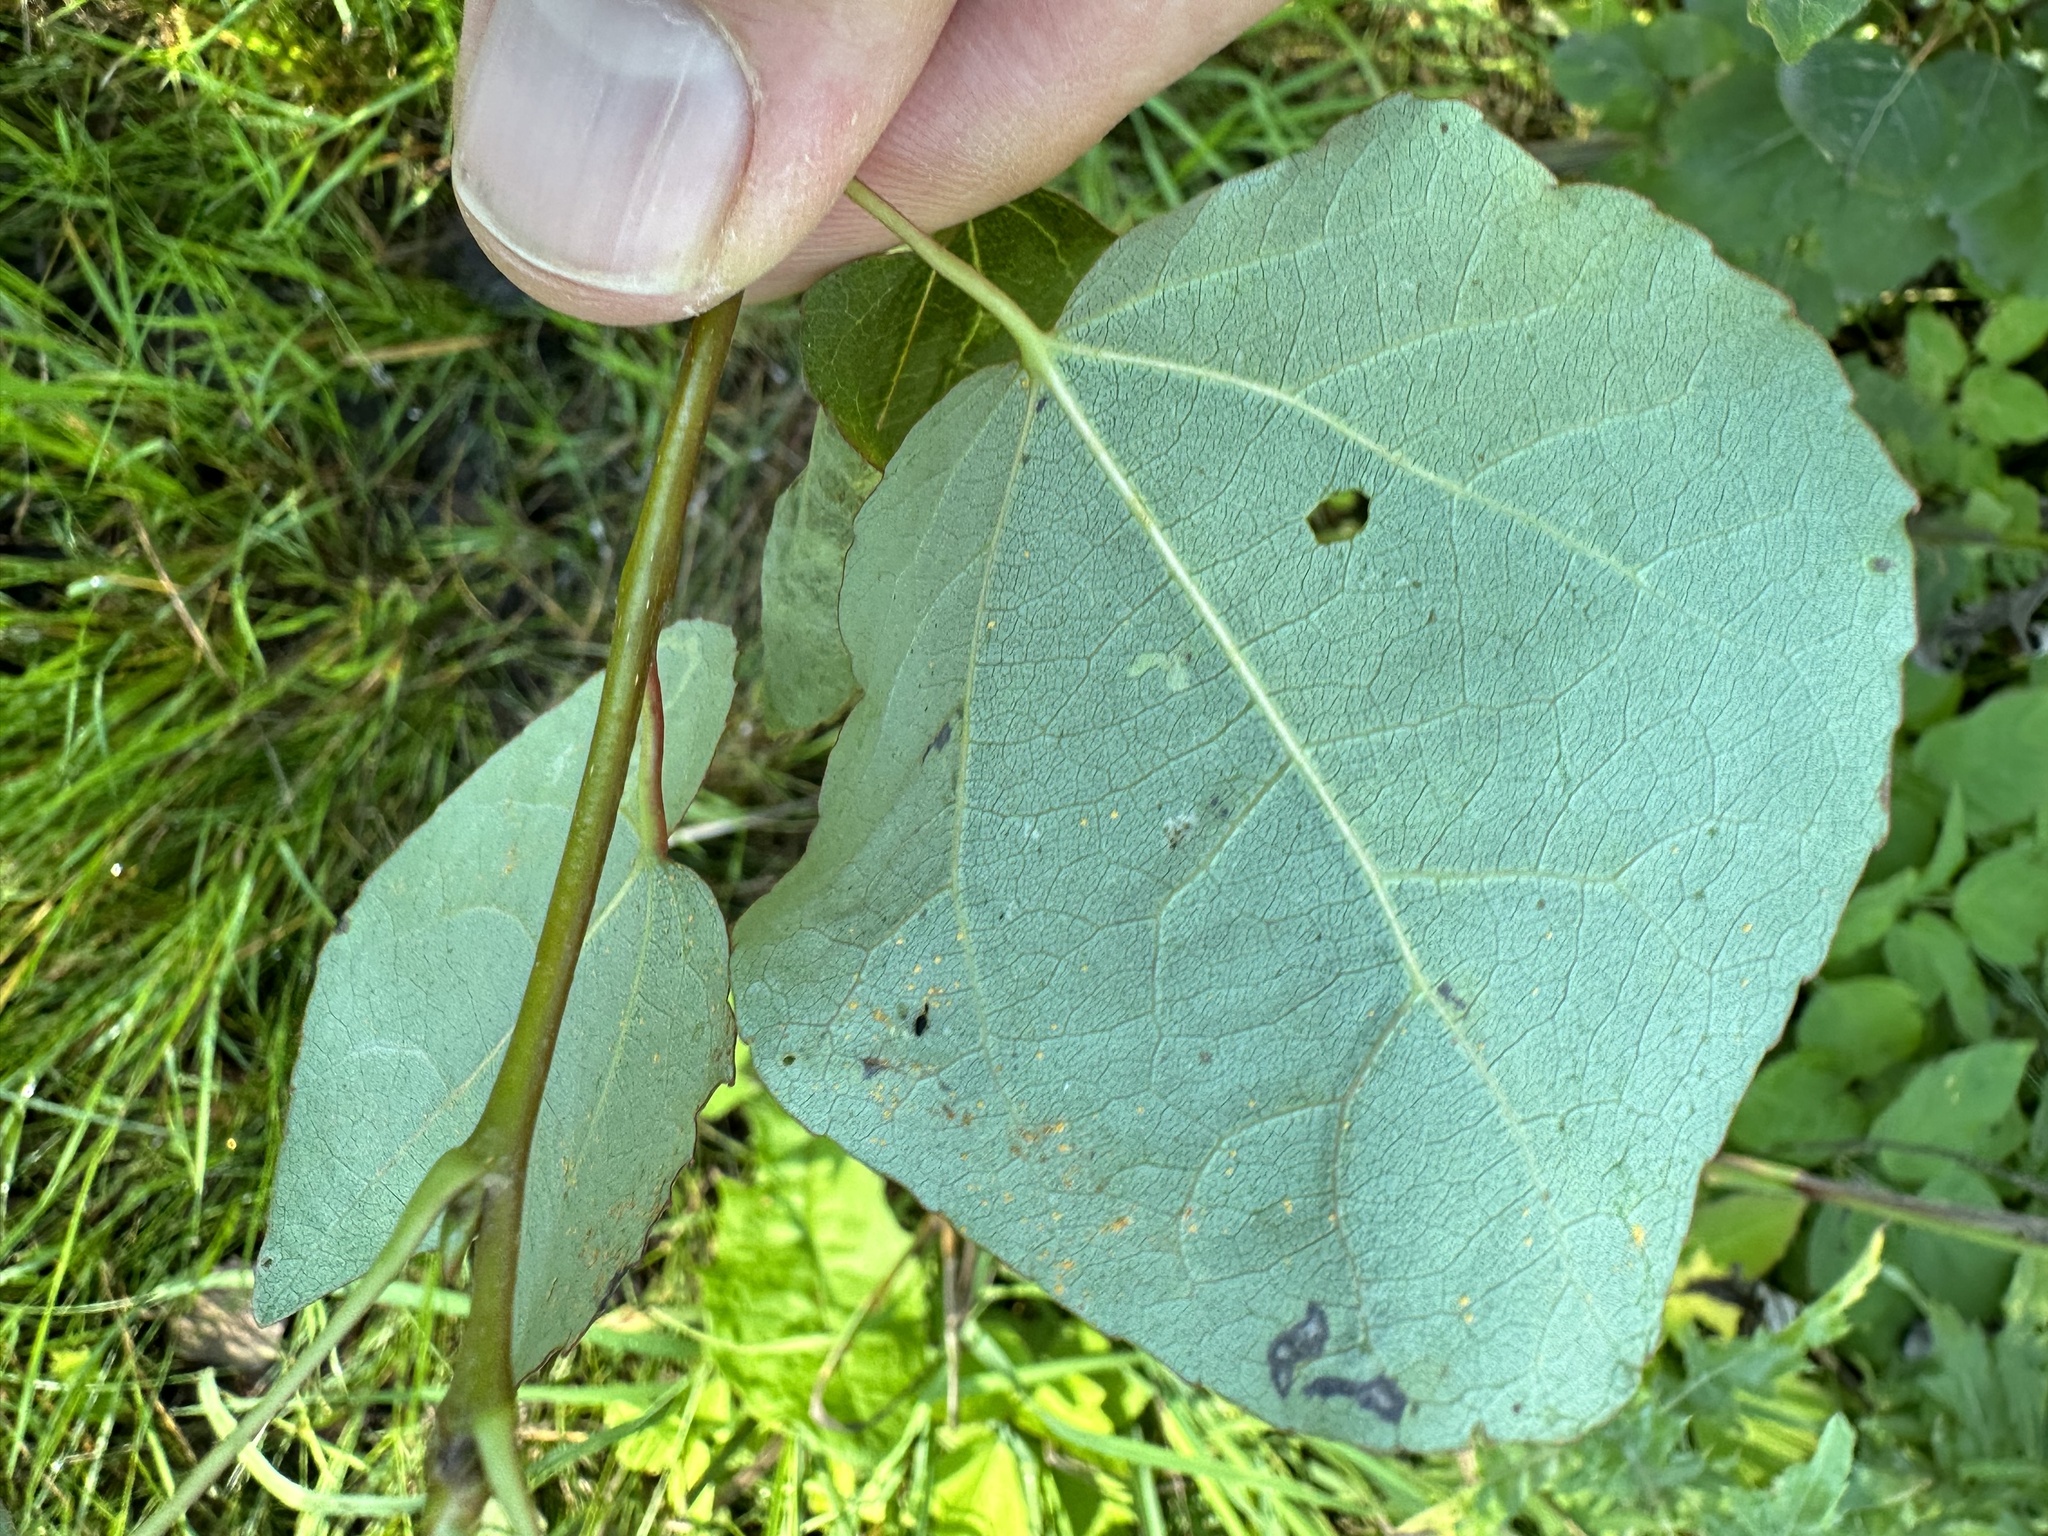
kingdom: Animalia
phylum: Arthropoda
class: Insecta
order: Lepidoptera
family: Gracillariidae
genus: Phyllocnistis
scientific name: Phyllocnistis labyrinthella
